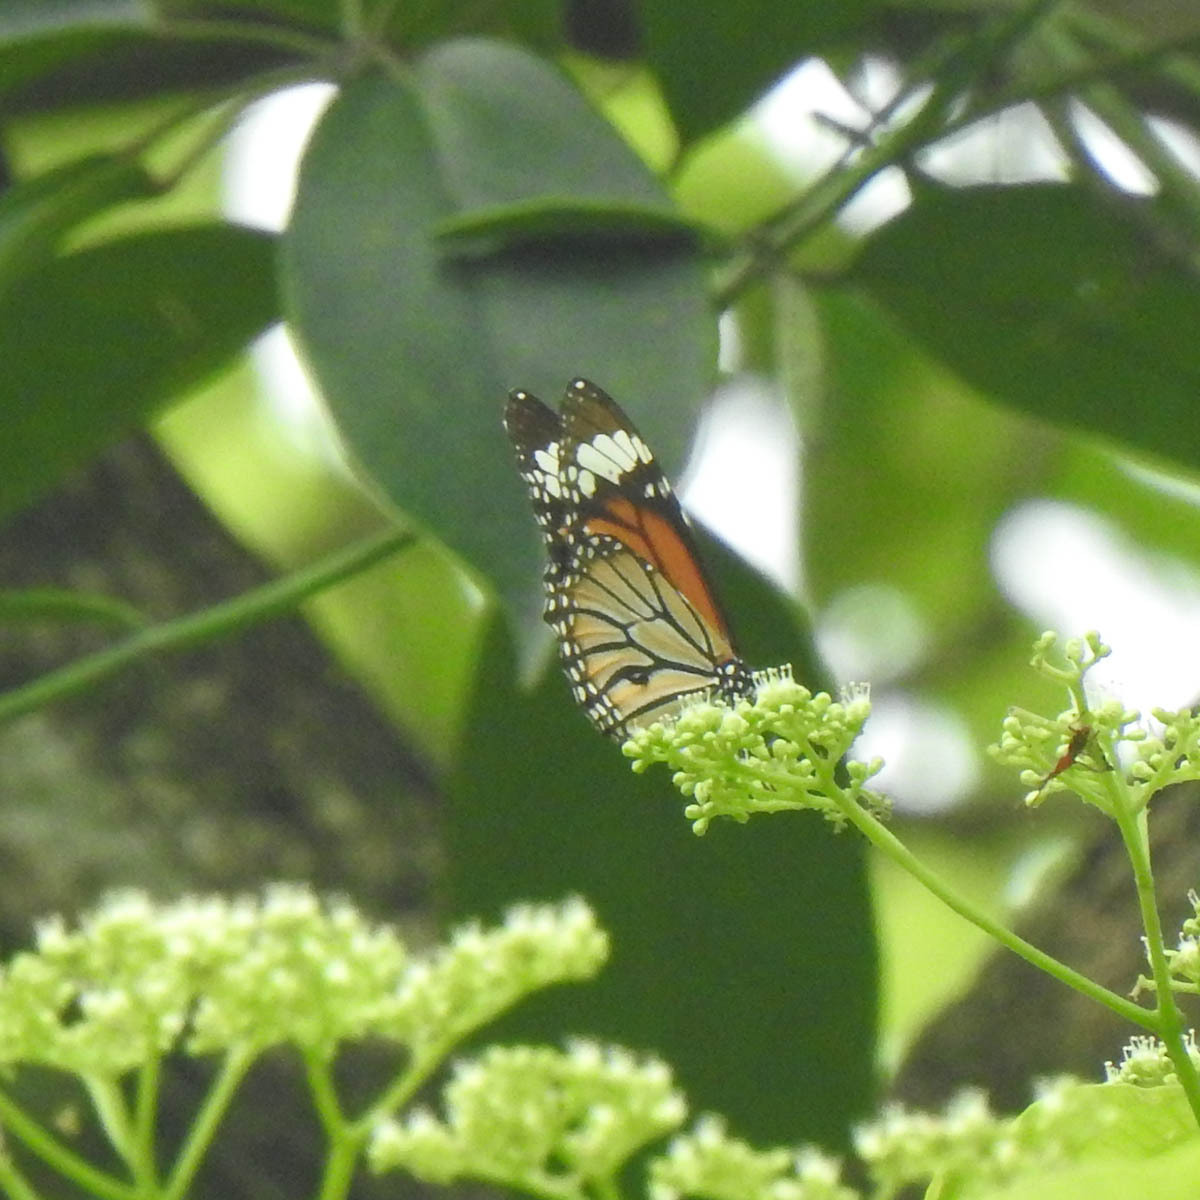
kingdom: Animalia
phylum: Arthropoda
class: Insecta
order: Lepidoptera
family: Nymphalidae
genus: Danaus
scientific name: Danaus genutia
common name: Common tiger butterfly
